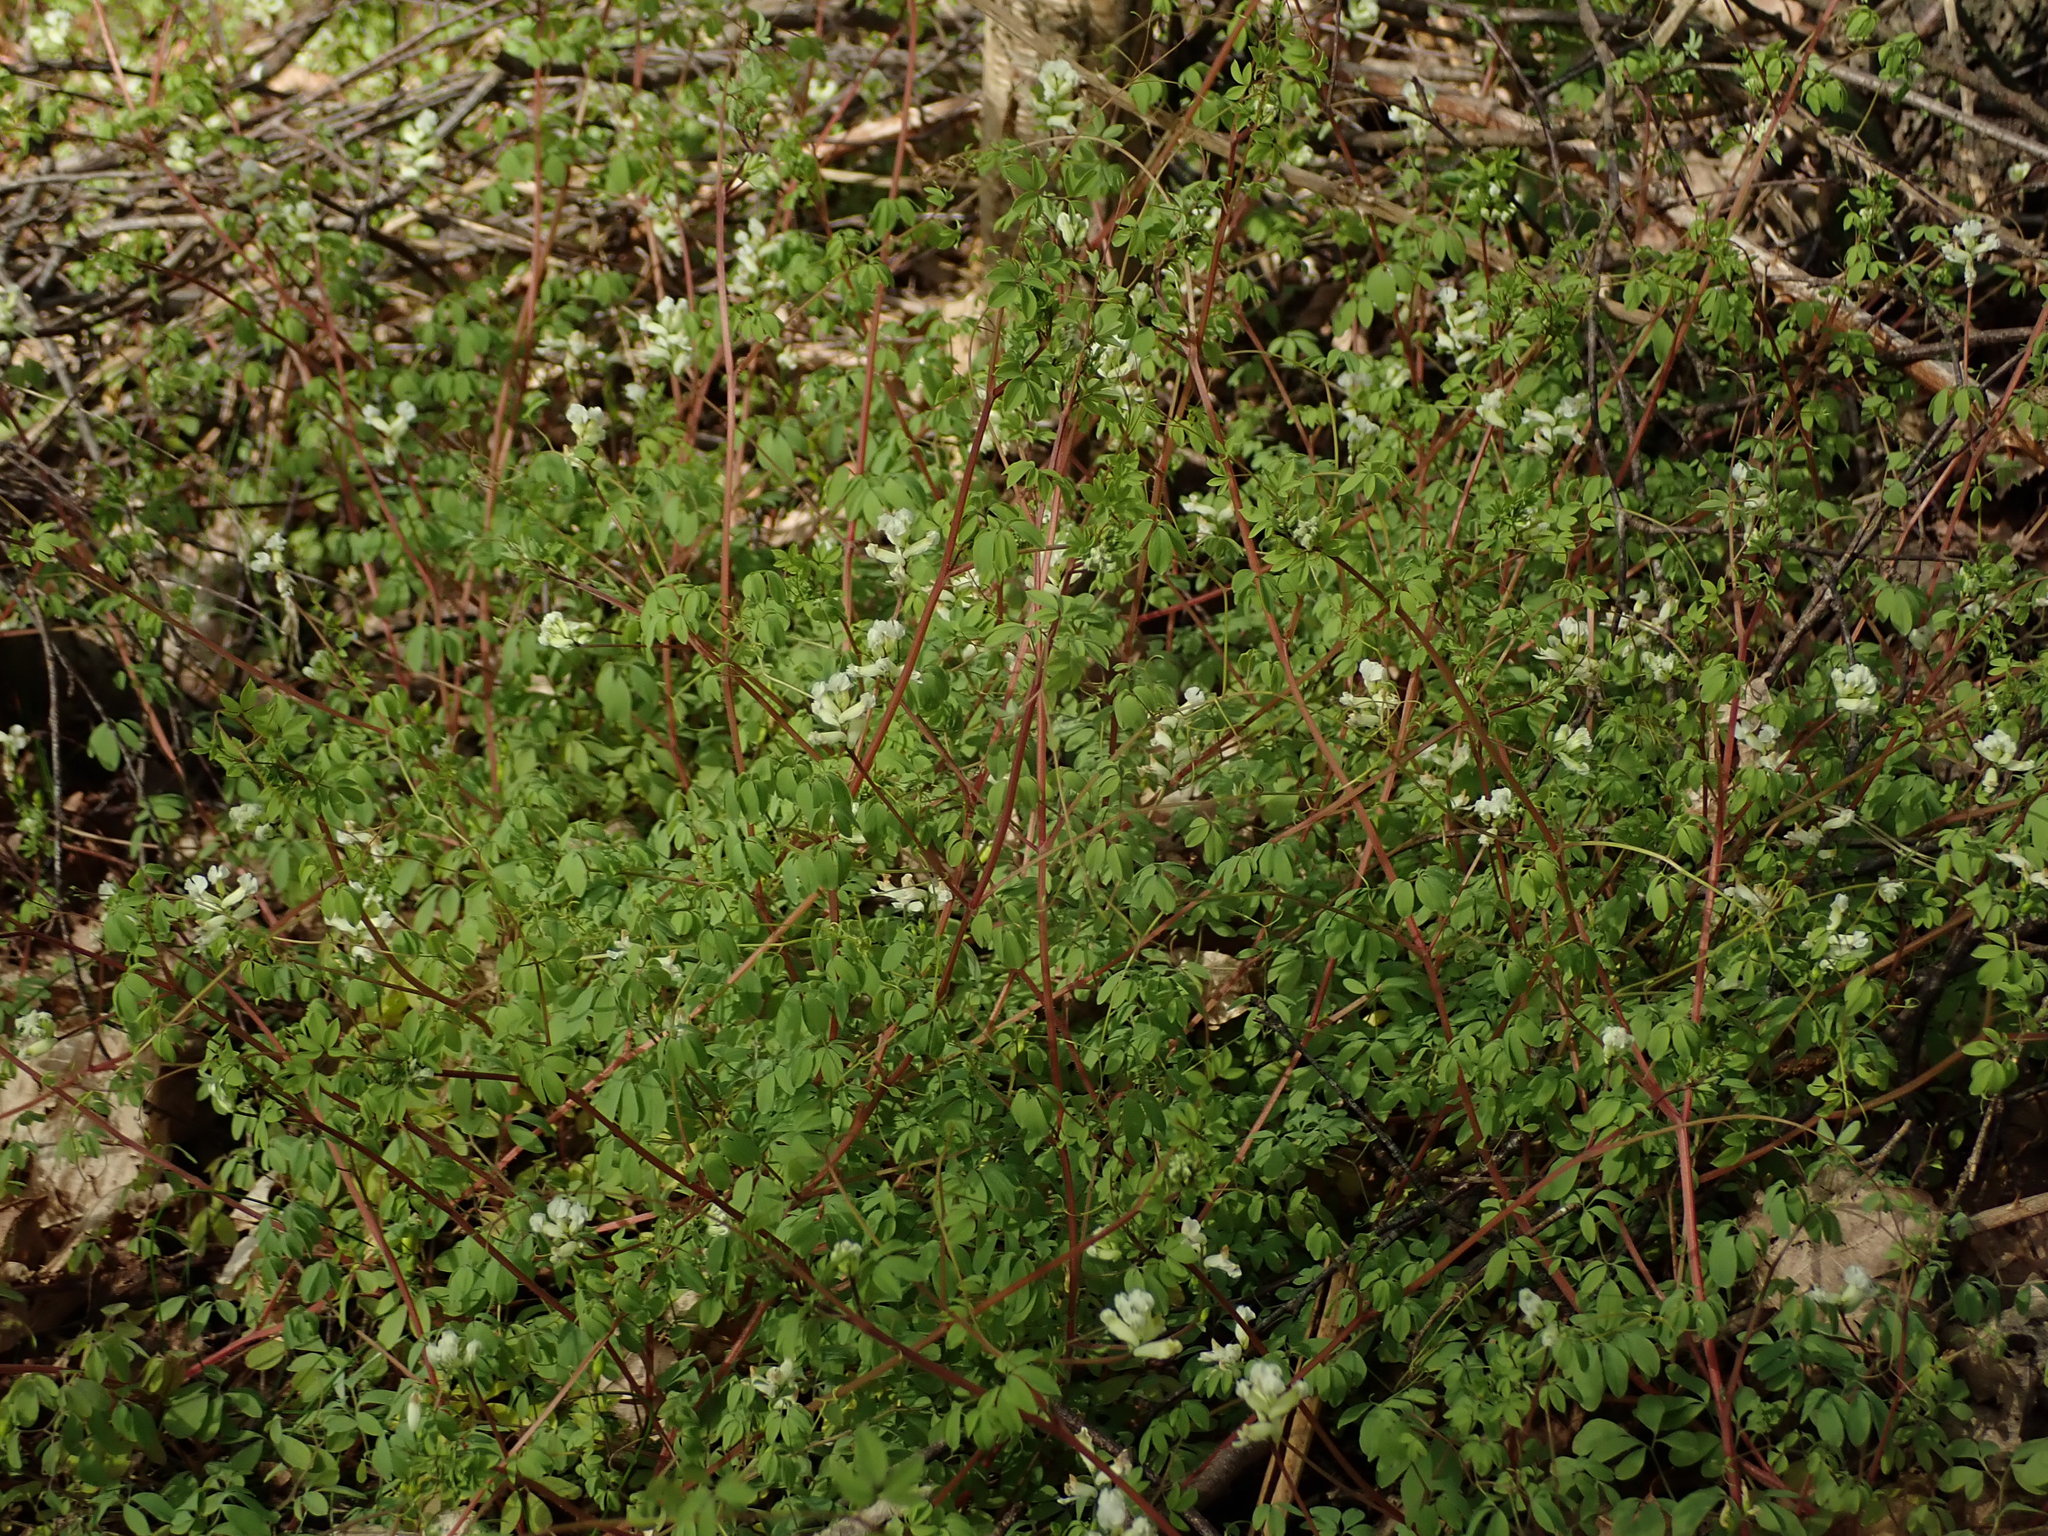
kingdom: Plantae
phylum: Tracheophyta
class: Magnoliopsida
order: Ranunculales
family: Papaveraceae
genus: Ceratocapnos
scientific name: Ceratocapnos claviculata
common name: Climbing corydalis
